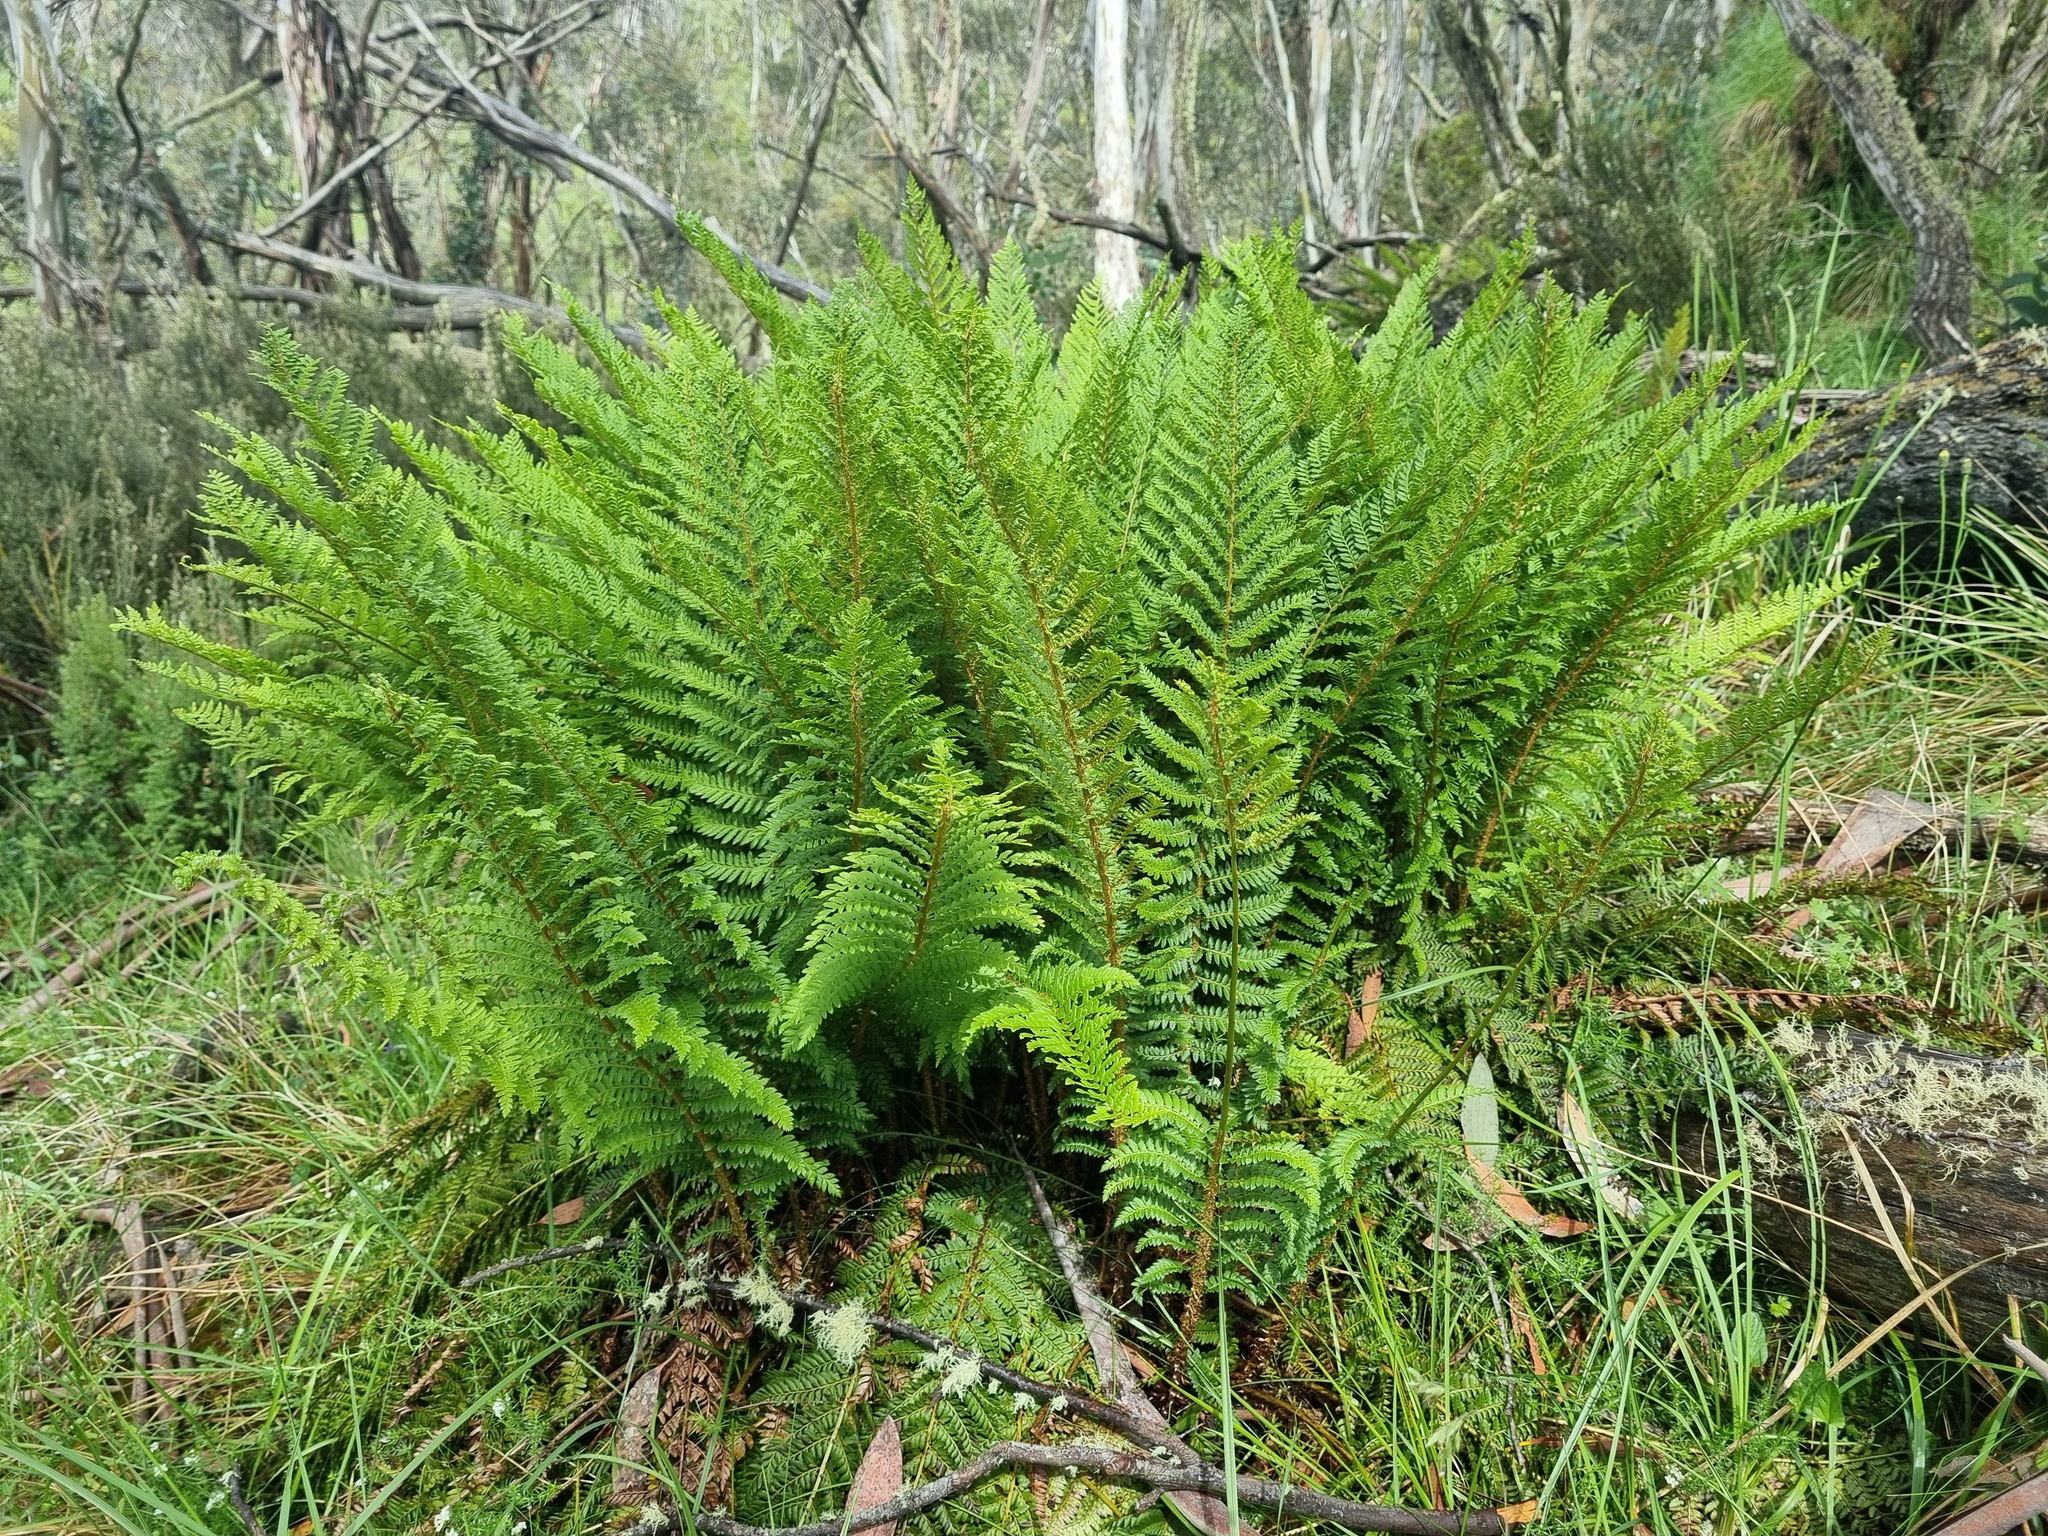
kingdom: Plantae
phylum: Tracheophyta
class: Polypodiopsida
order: Polypodiales
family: Dryopteridaceae
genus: Polystichum
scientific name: Polystichum proliferum
